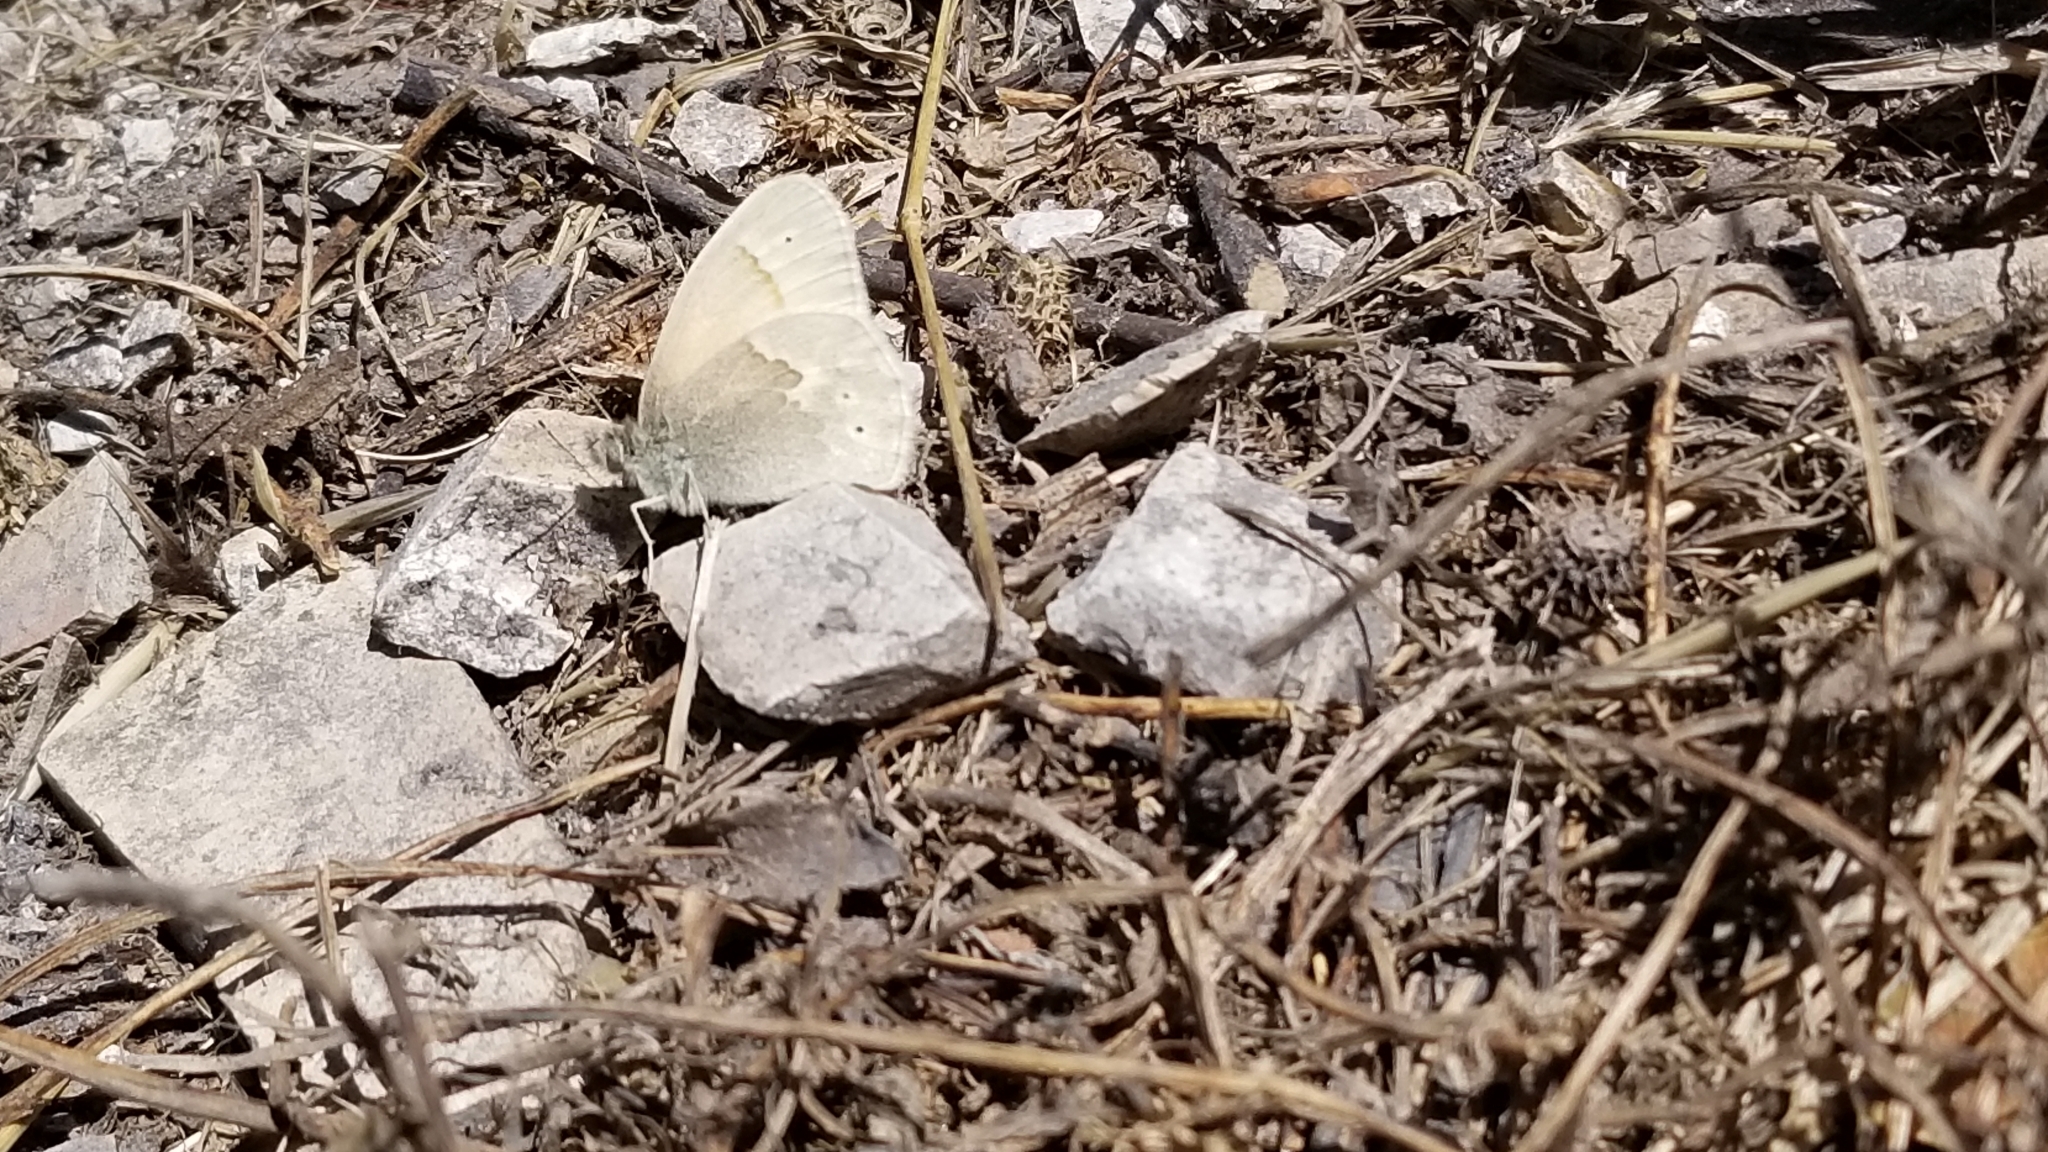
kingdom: Animalia
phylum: Arthropoda
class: Insecta
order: Lepidoptera
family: Nymphalidae
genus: Coenonympha
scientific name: Coenonympha california
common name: Common ringlet
